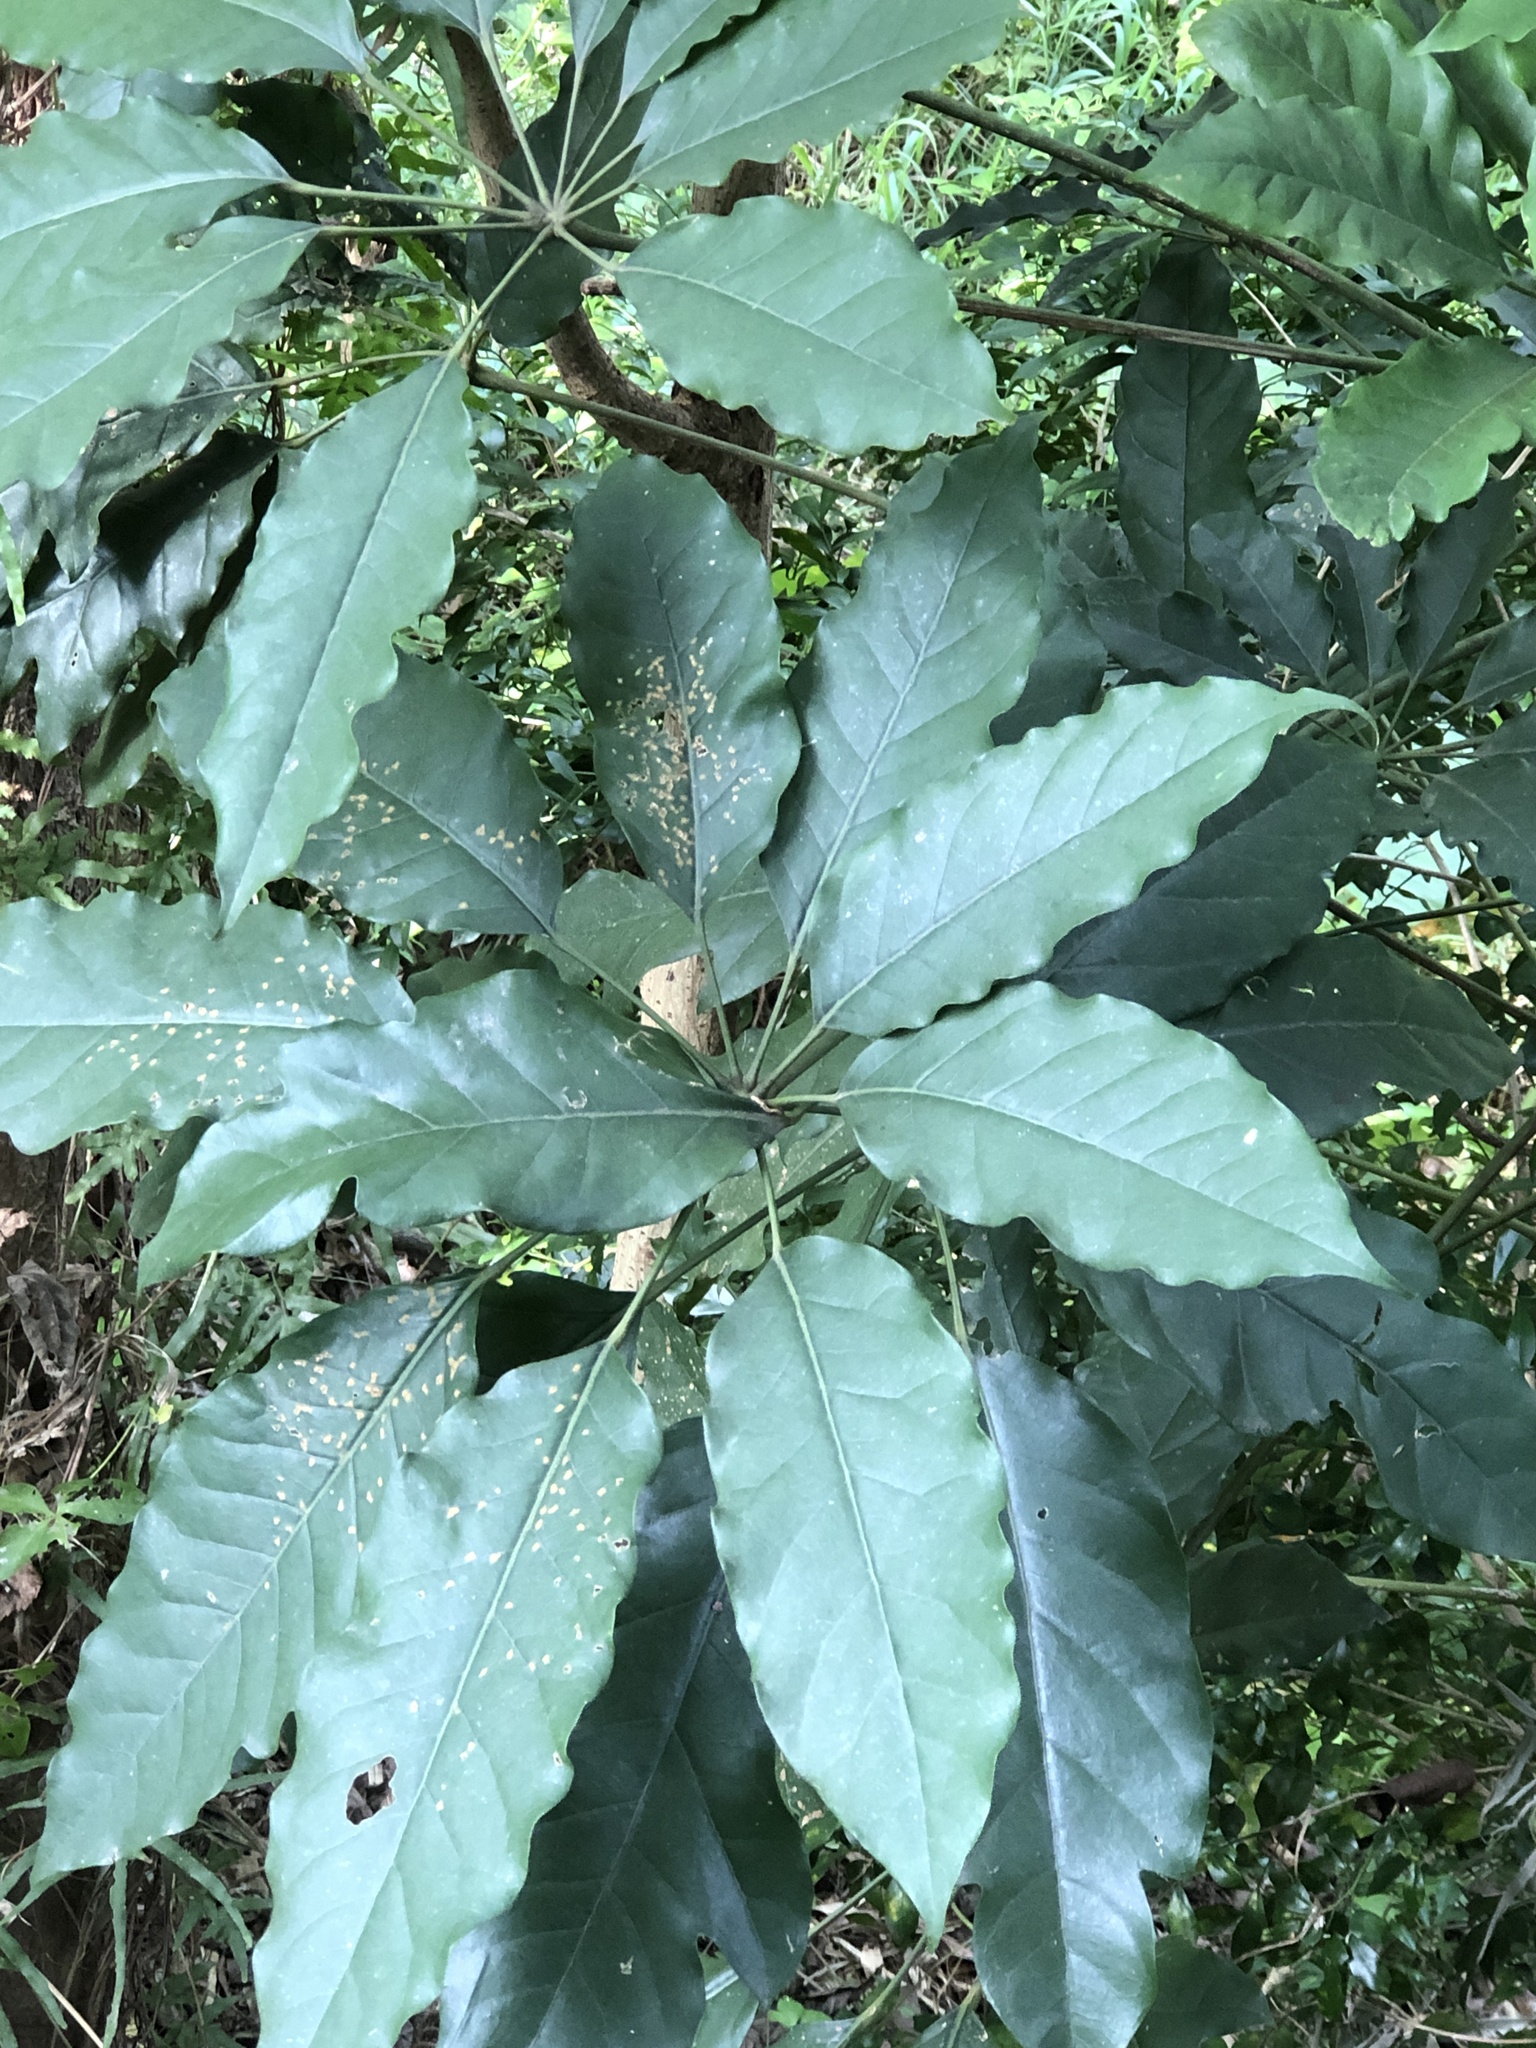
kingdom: Plantae
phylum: Tracheophyta
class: Magnoliopsida
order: Apiales
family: Araliaceae
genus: Heptapleurum
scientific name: Heptapleurum heptaphyllum
